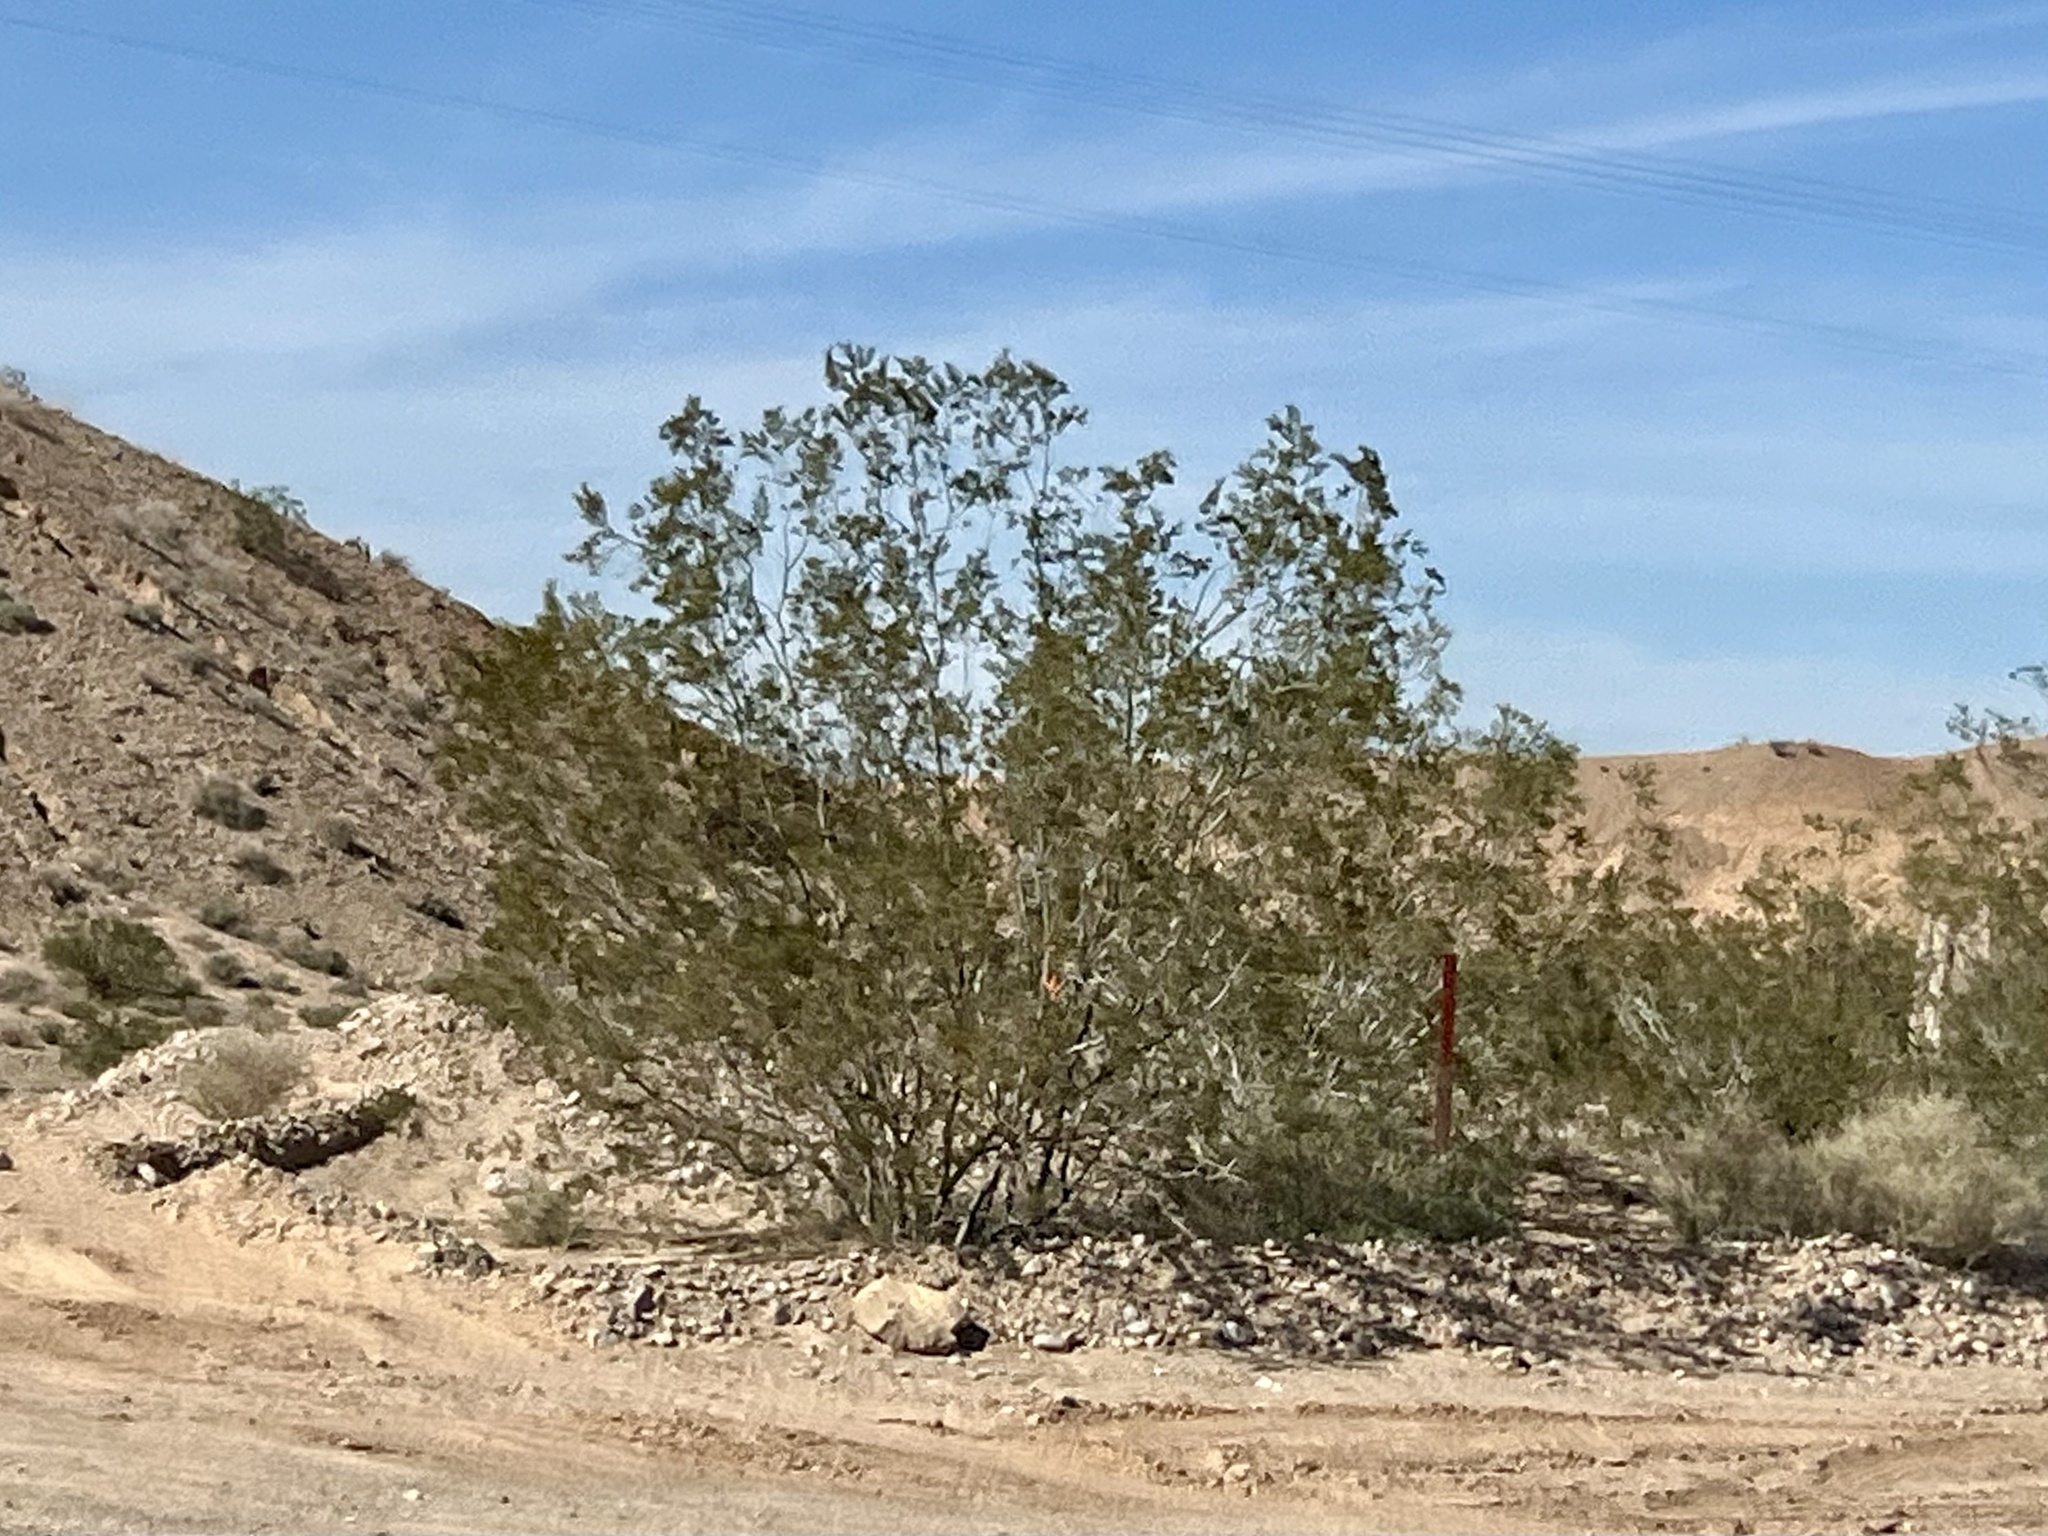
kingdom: Plantae
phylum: Tracheophyta
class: Magnoliopsida
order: Zygophyllales
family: Zygophyllaceae
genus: Larrea
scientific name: Larrea tridentata
